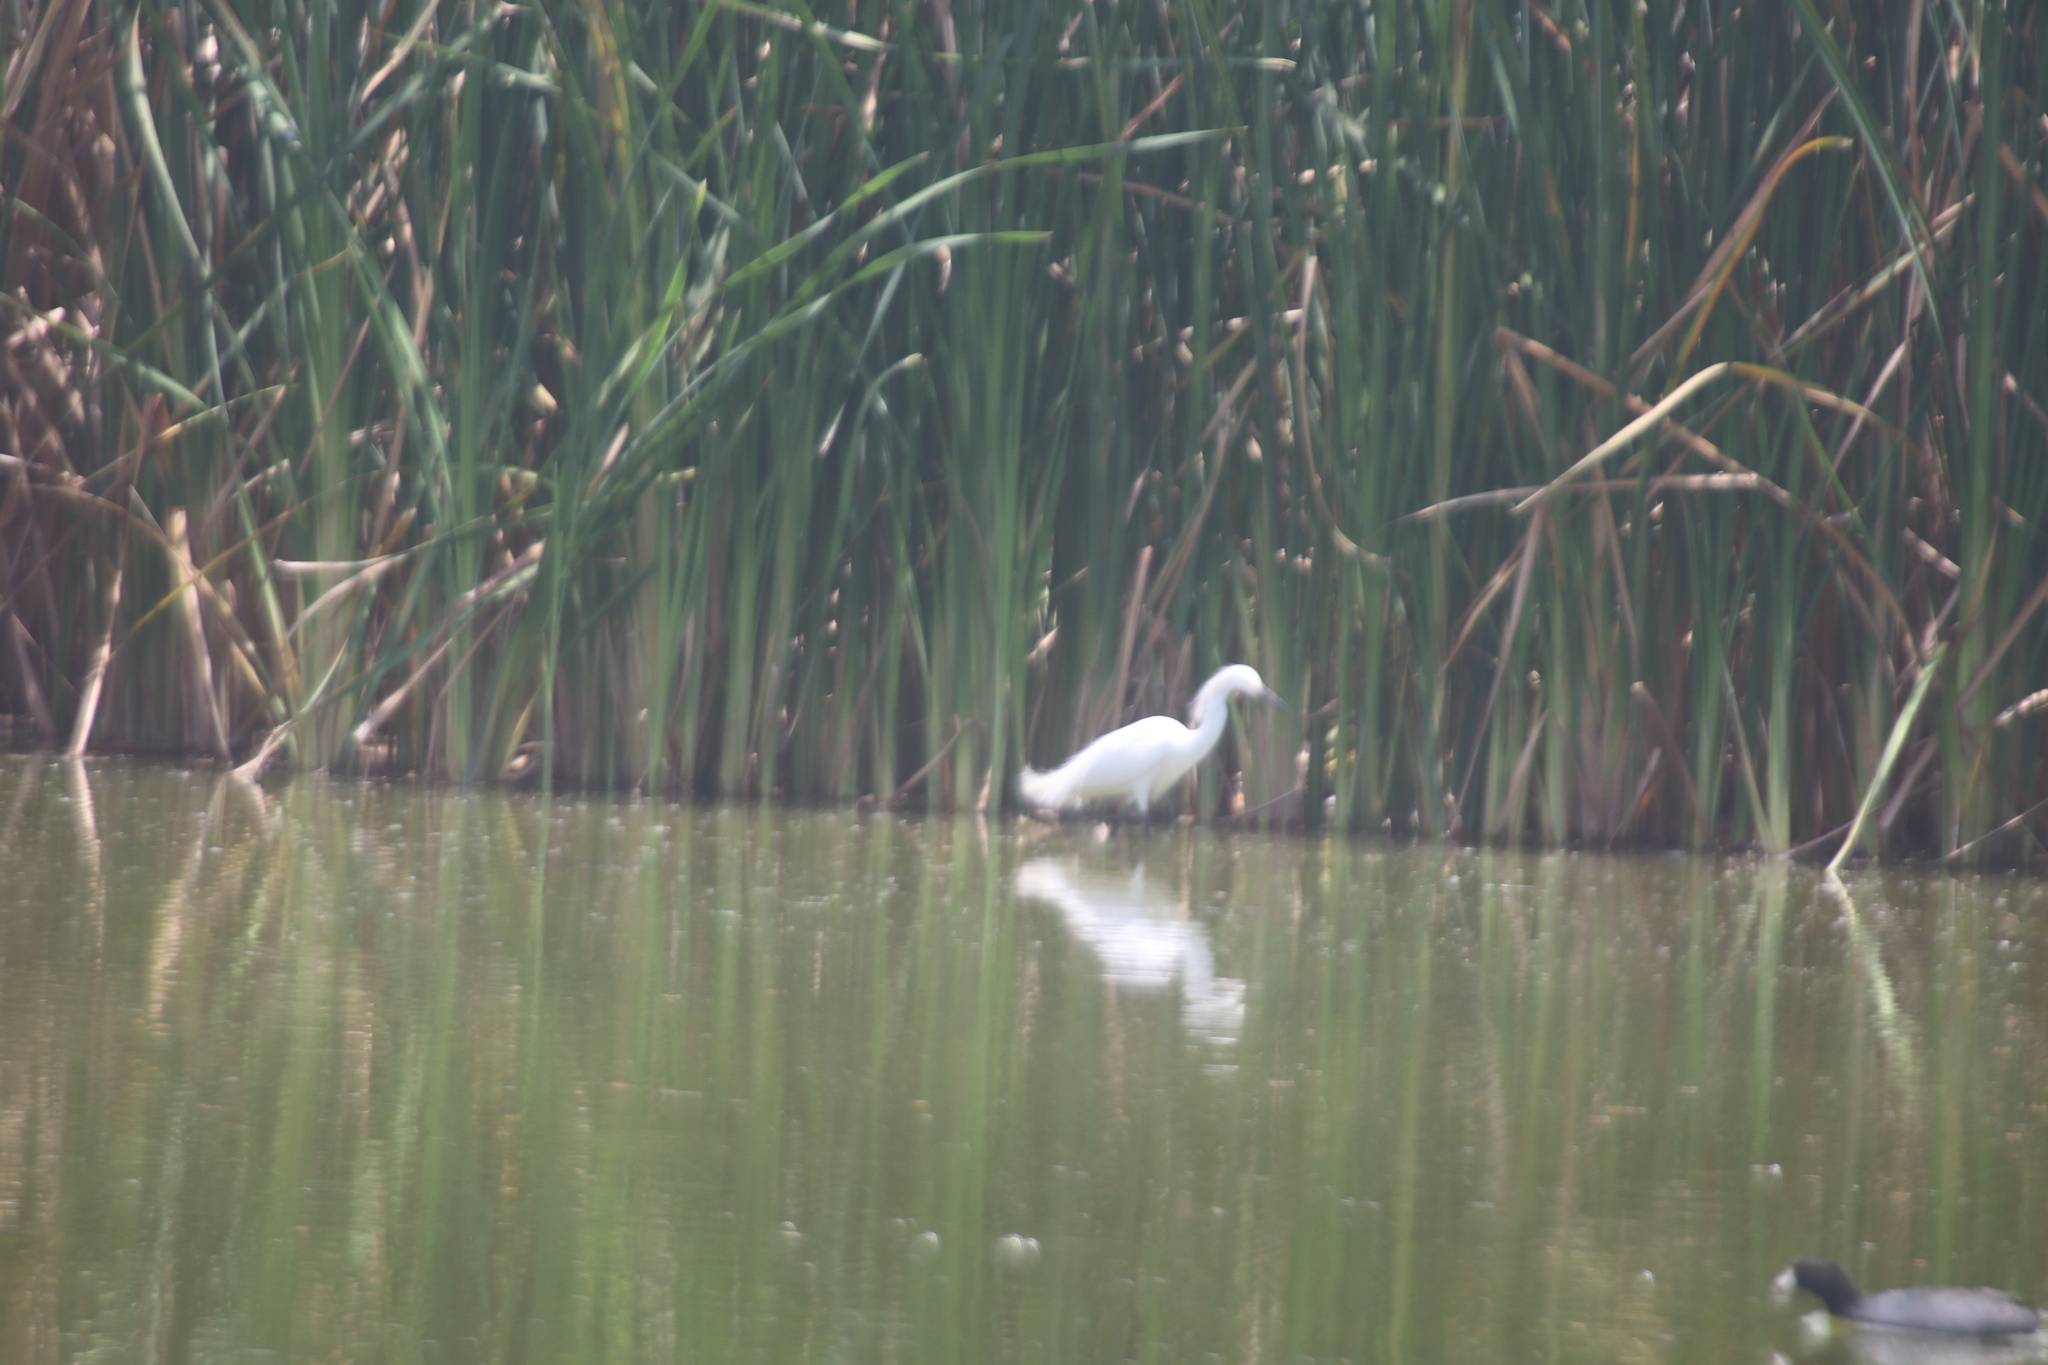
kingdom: Animalia
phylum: Chordata
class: Aves
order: Pelecaniformes
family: Ardeidae
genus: Egretta
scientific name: Egretta thula
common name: Snowy egret
